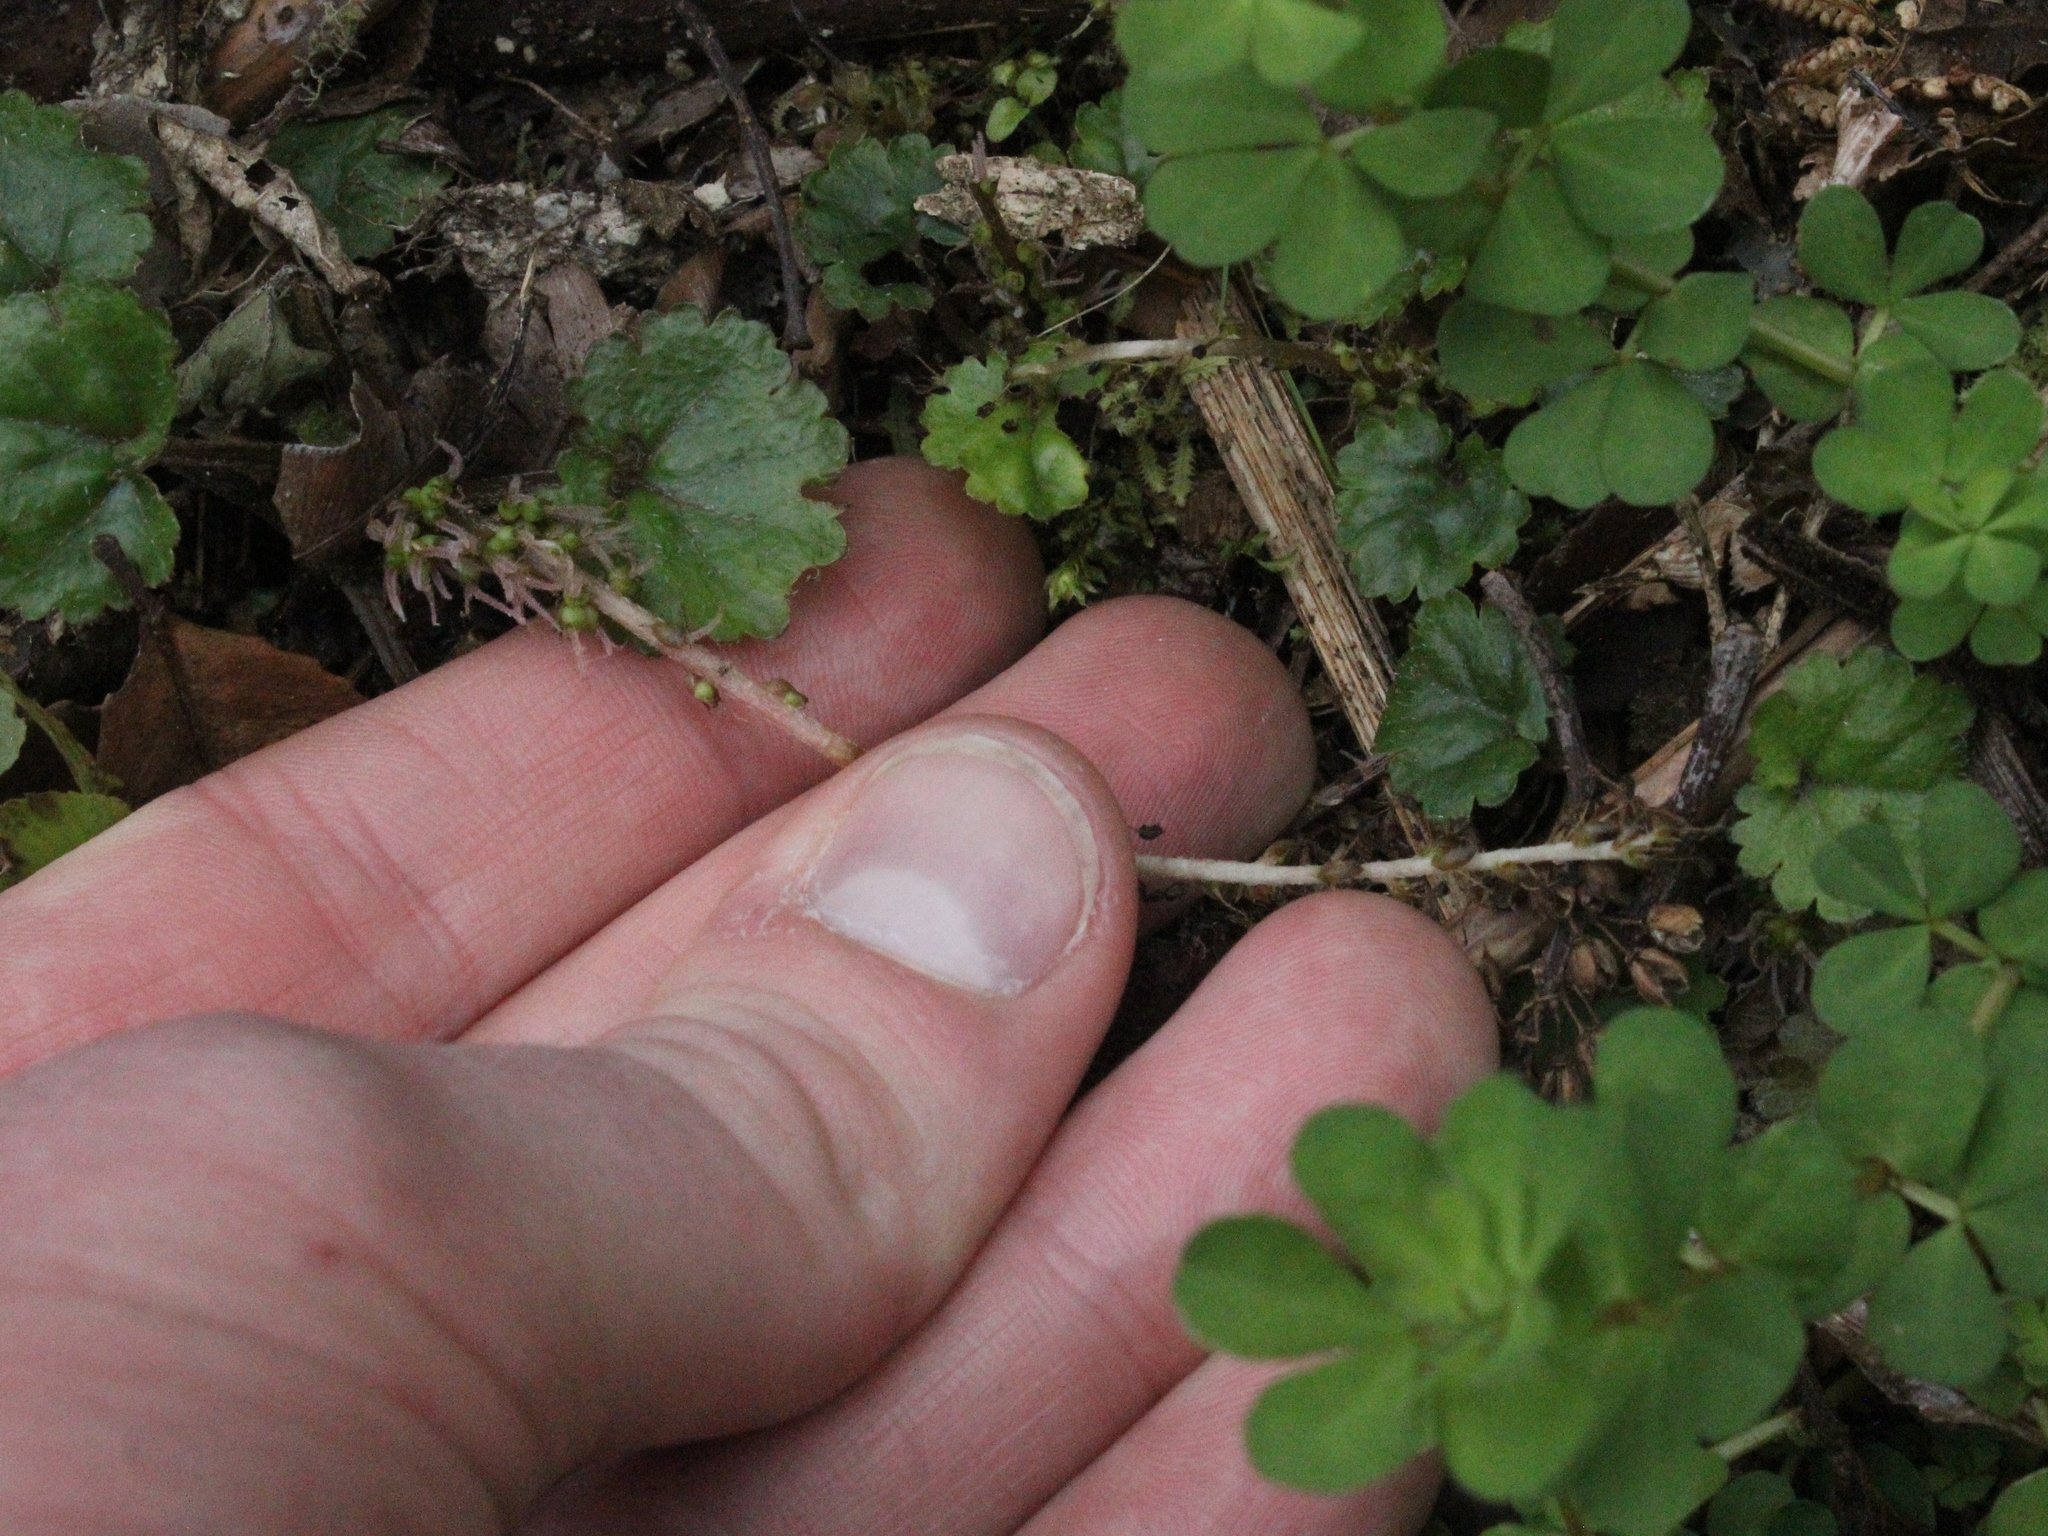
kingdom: Plantae
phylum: Tracheophyta
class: Magnoliopsida
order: Gunnerales
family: Gunneraceae
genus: Gunnera
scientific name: Gunnera monoica
